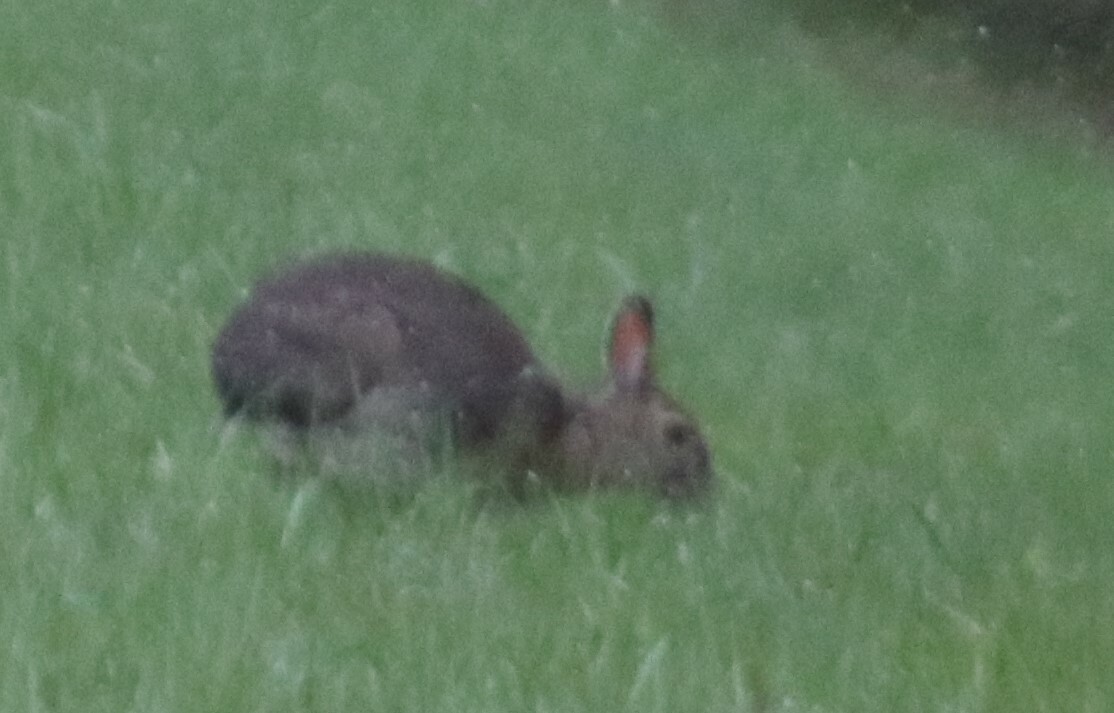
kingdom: Animalia
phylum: Chordata
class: Mammalia
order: Lagomorpha
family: Leporidae
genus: Lepus
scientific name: Lepus americanus
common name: Snowshoe hare
